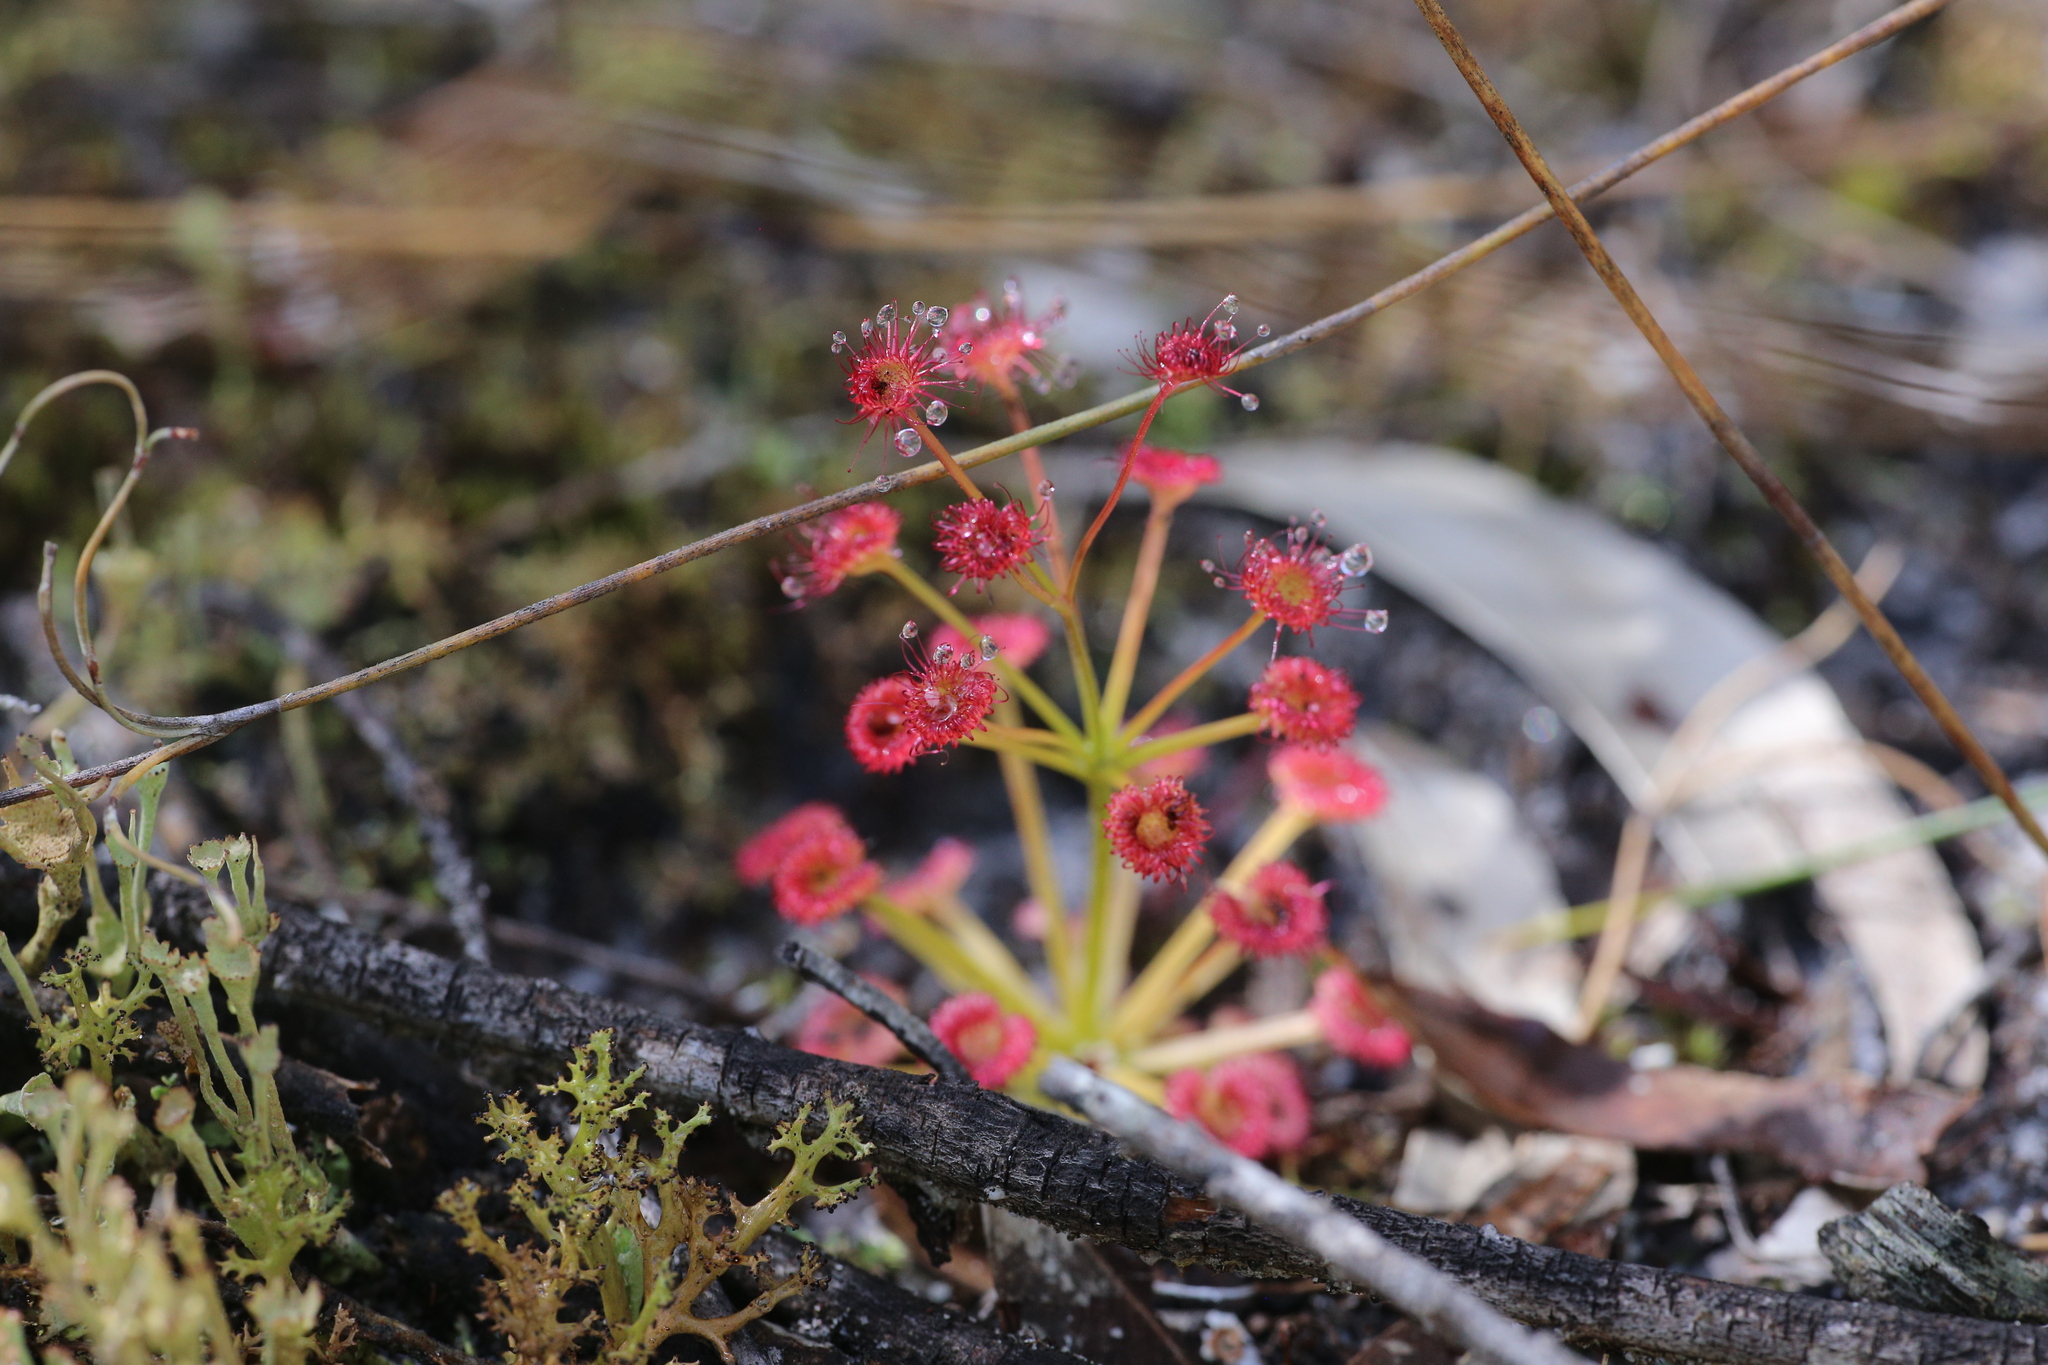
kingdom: Plantae
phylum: Tracheophyta
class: Magnoliopsida
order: Caryophyllales
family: Droseraceae
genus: Drosera
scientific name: Drosera stolonifera
